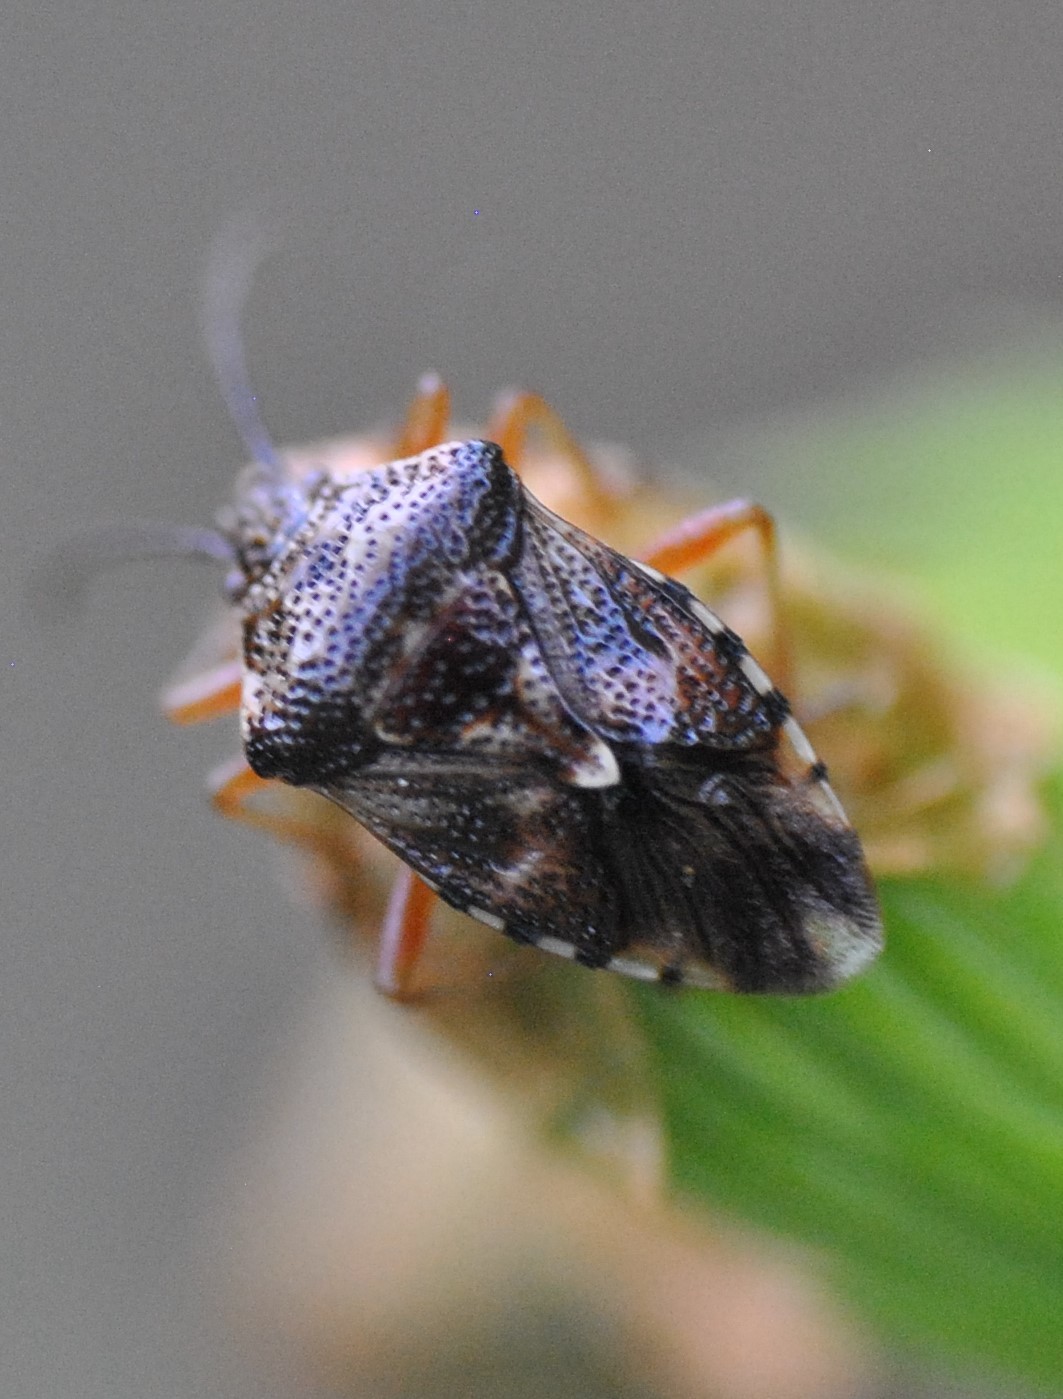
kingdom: Animalia
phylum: Arthropoda
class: Insecta
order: Hemiptera
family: Acanthosomatidae
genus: Elasmucha
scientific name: Elasmucha lateralis
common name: Shield bug
